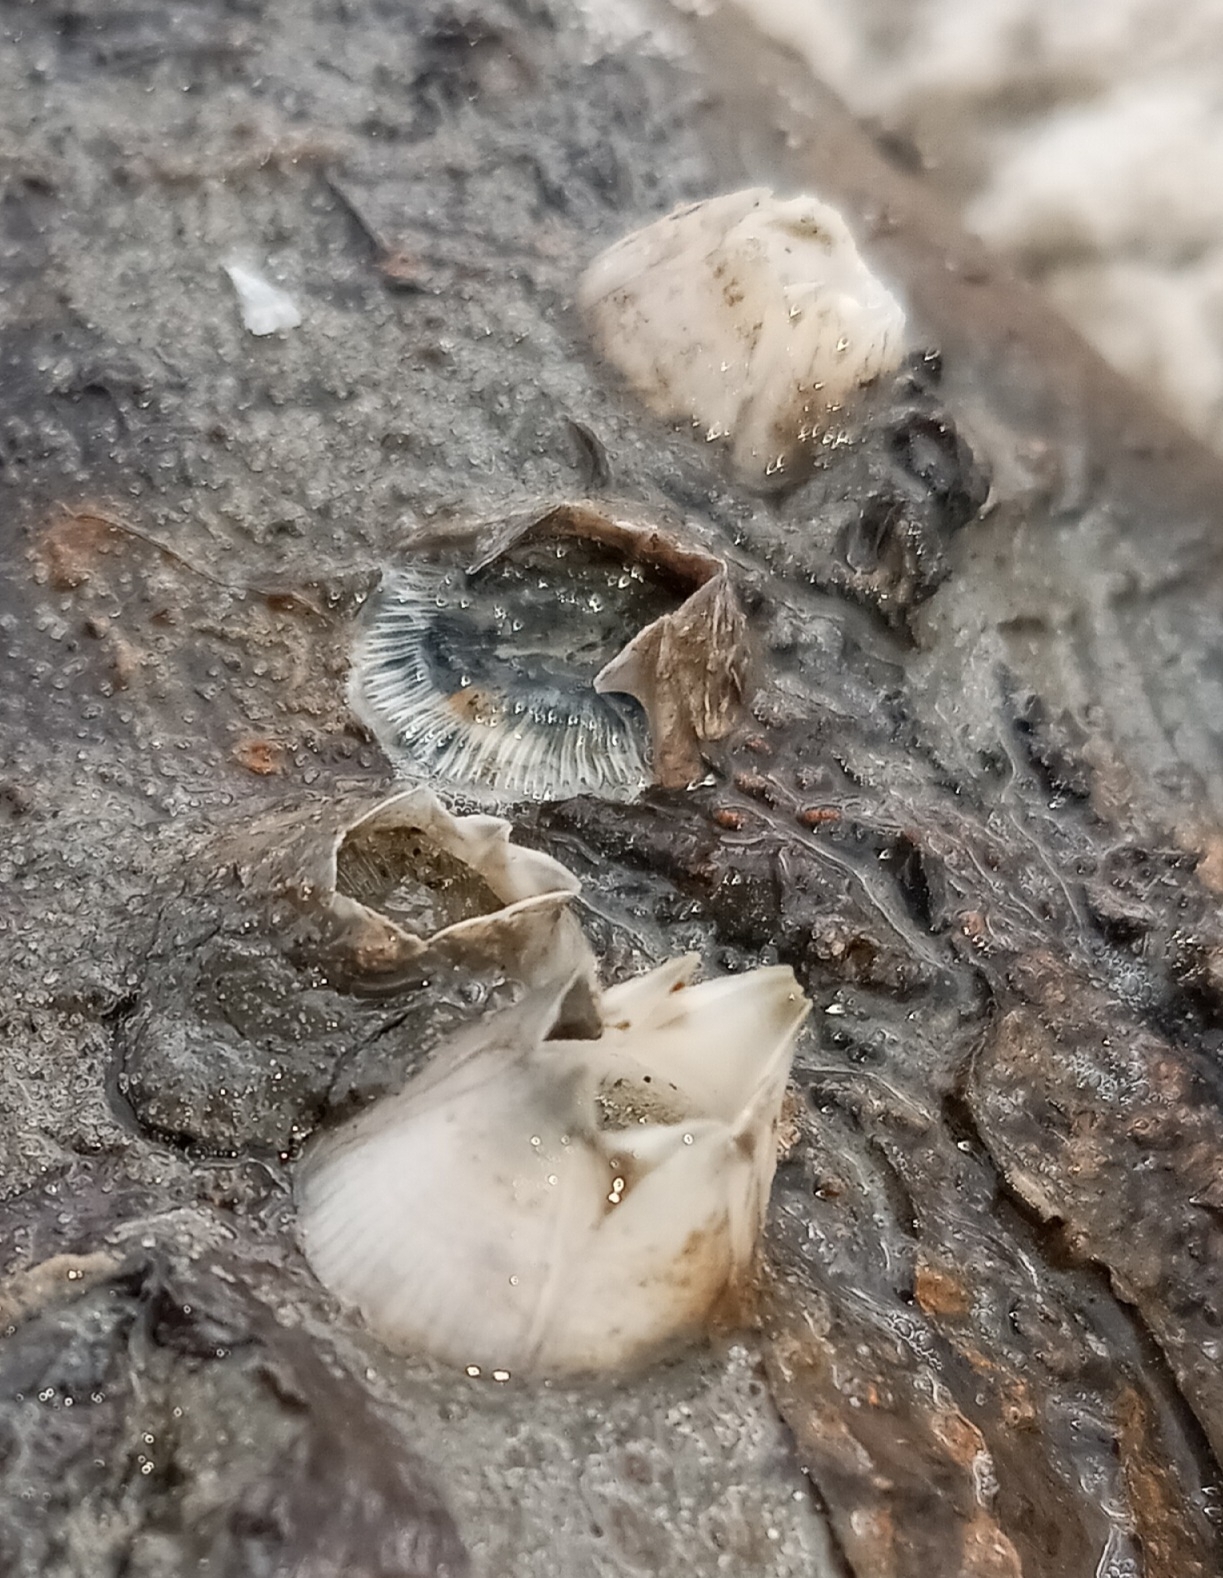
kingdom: Animalia
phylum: Arthropoda
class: Maxillopoda
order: Sessilia
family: Balanidae
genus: Amphibalanus
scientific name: Amphibalanus improvisus
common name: Bay barnacle
